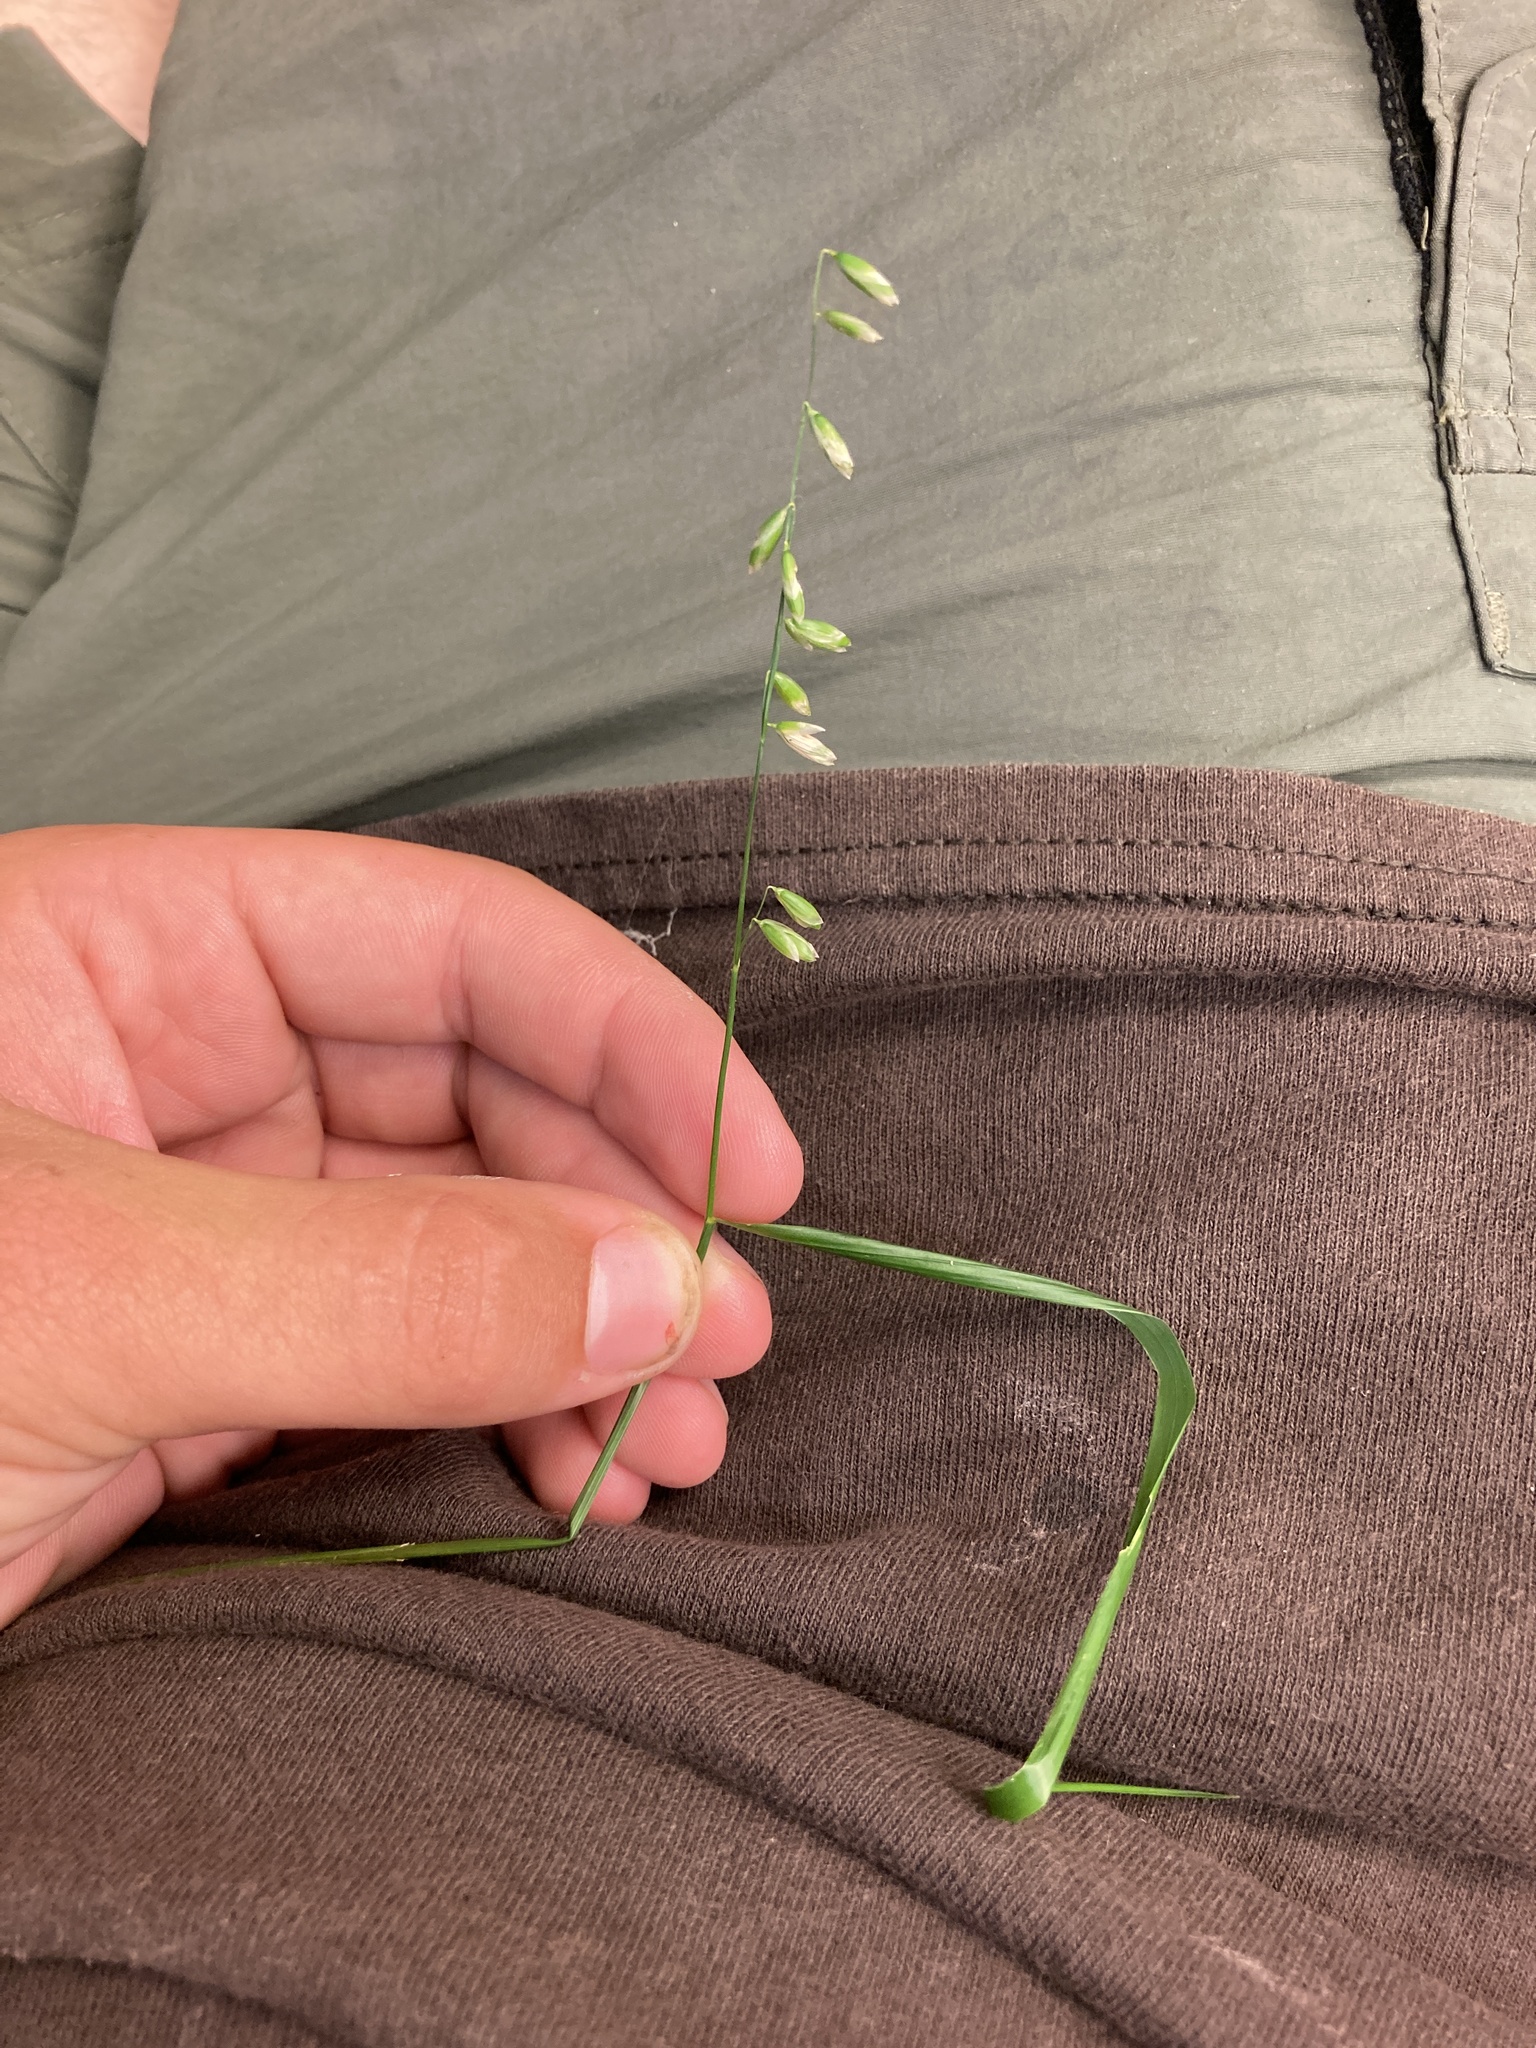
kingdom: Plantae
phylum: Tracheophyta
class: Liliopsida
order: Poales
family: Poaceae
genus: Melica
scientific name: Melica mutica
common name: Two-flower melic
